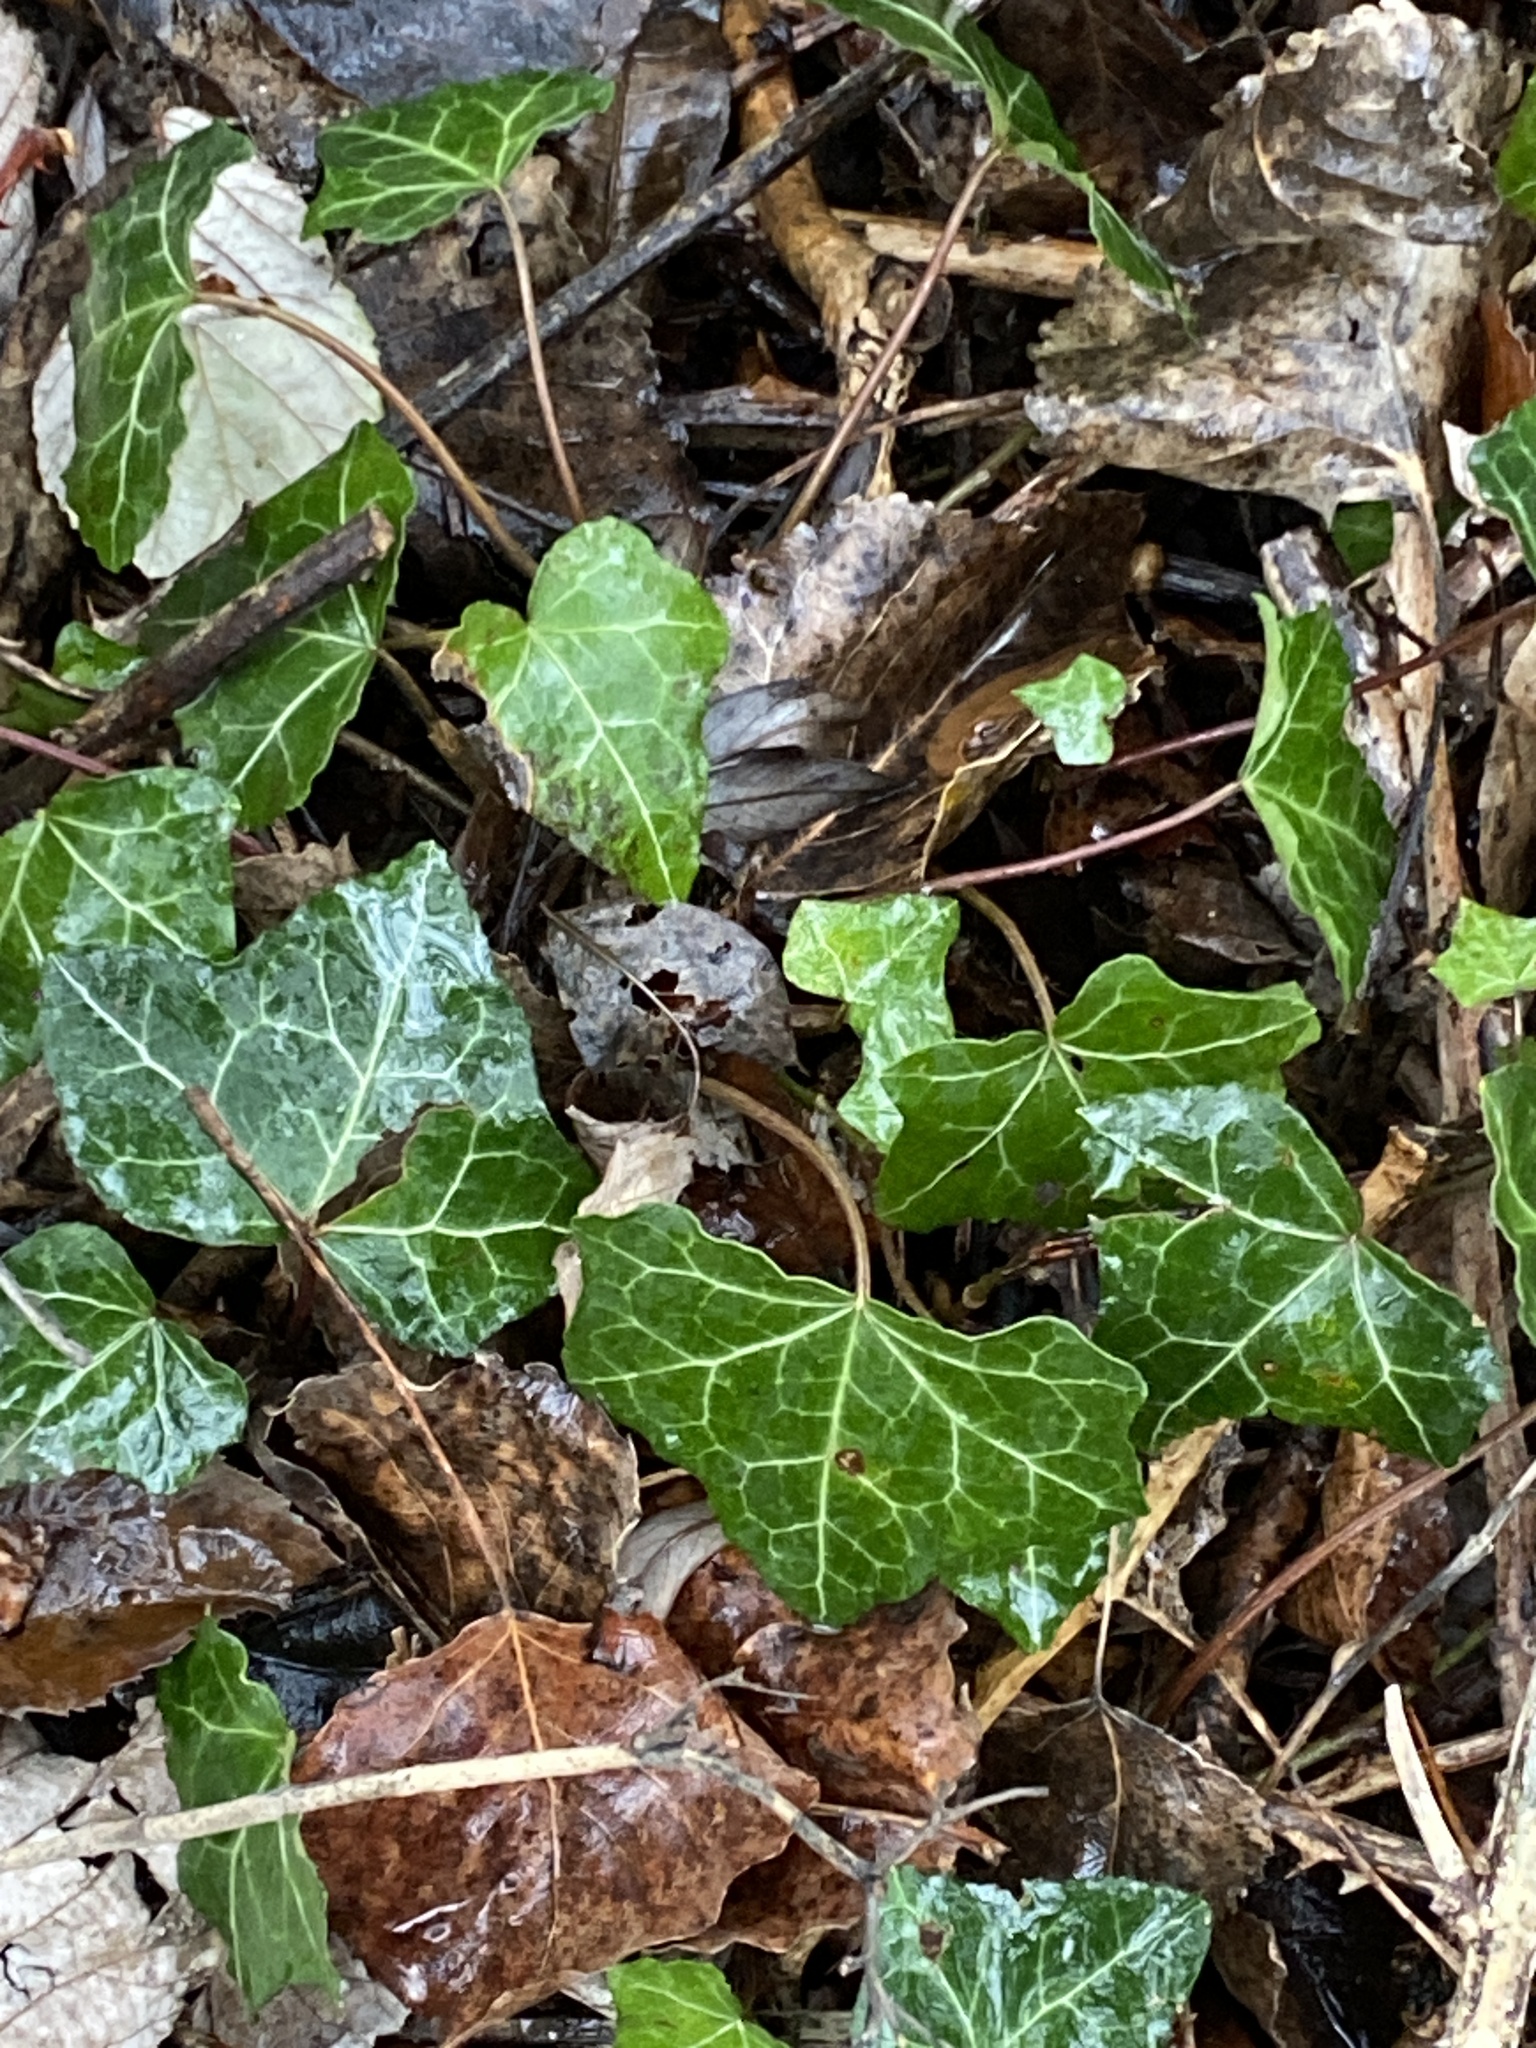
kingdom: Plantae
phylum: Tracheophyta
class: Magnoliopsida
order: Apiales
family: Araliaceae
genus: Hedera
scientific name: Hedera helix
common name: Ivy
